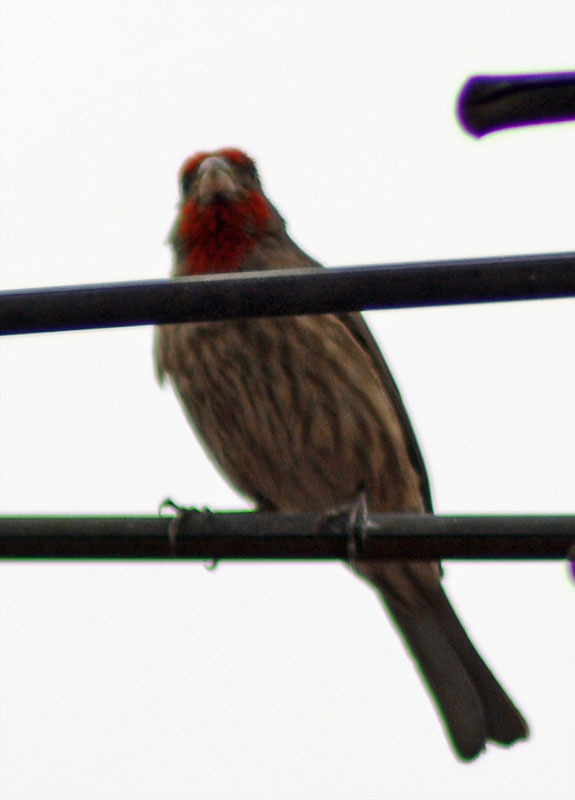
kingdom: Animalia
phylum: Chordata
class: Aves
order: Passeriformes
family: Fringillidae
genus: Haemorhous
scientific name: Haemorhous mexicanus
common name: House finch
